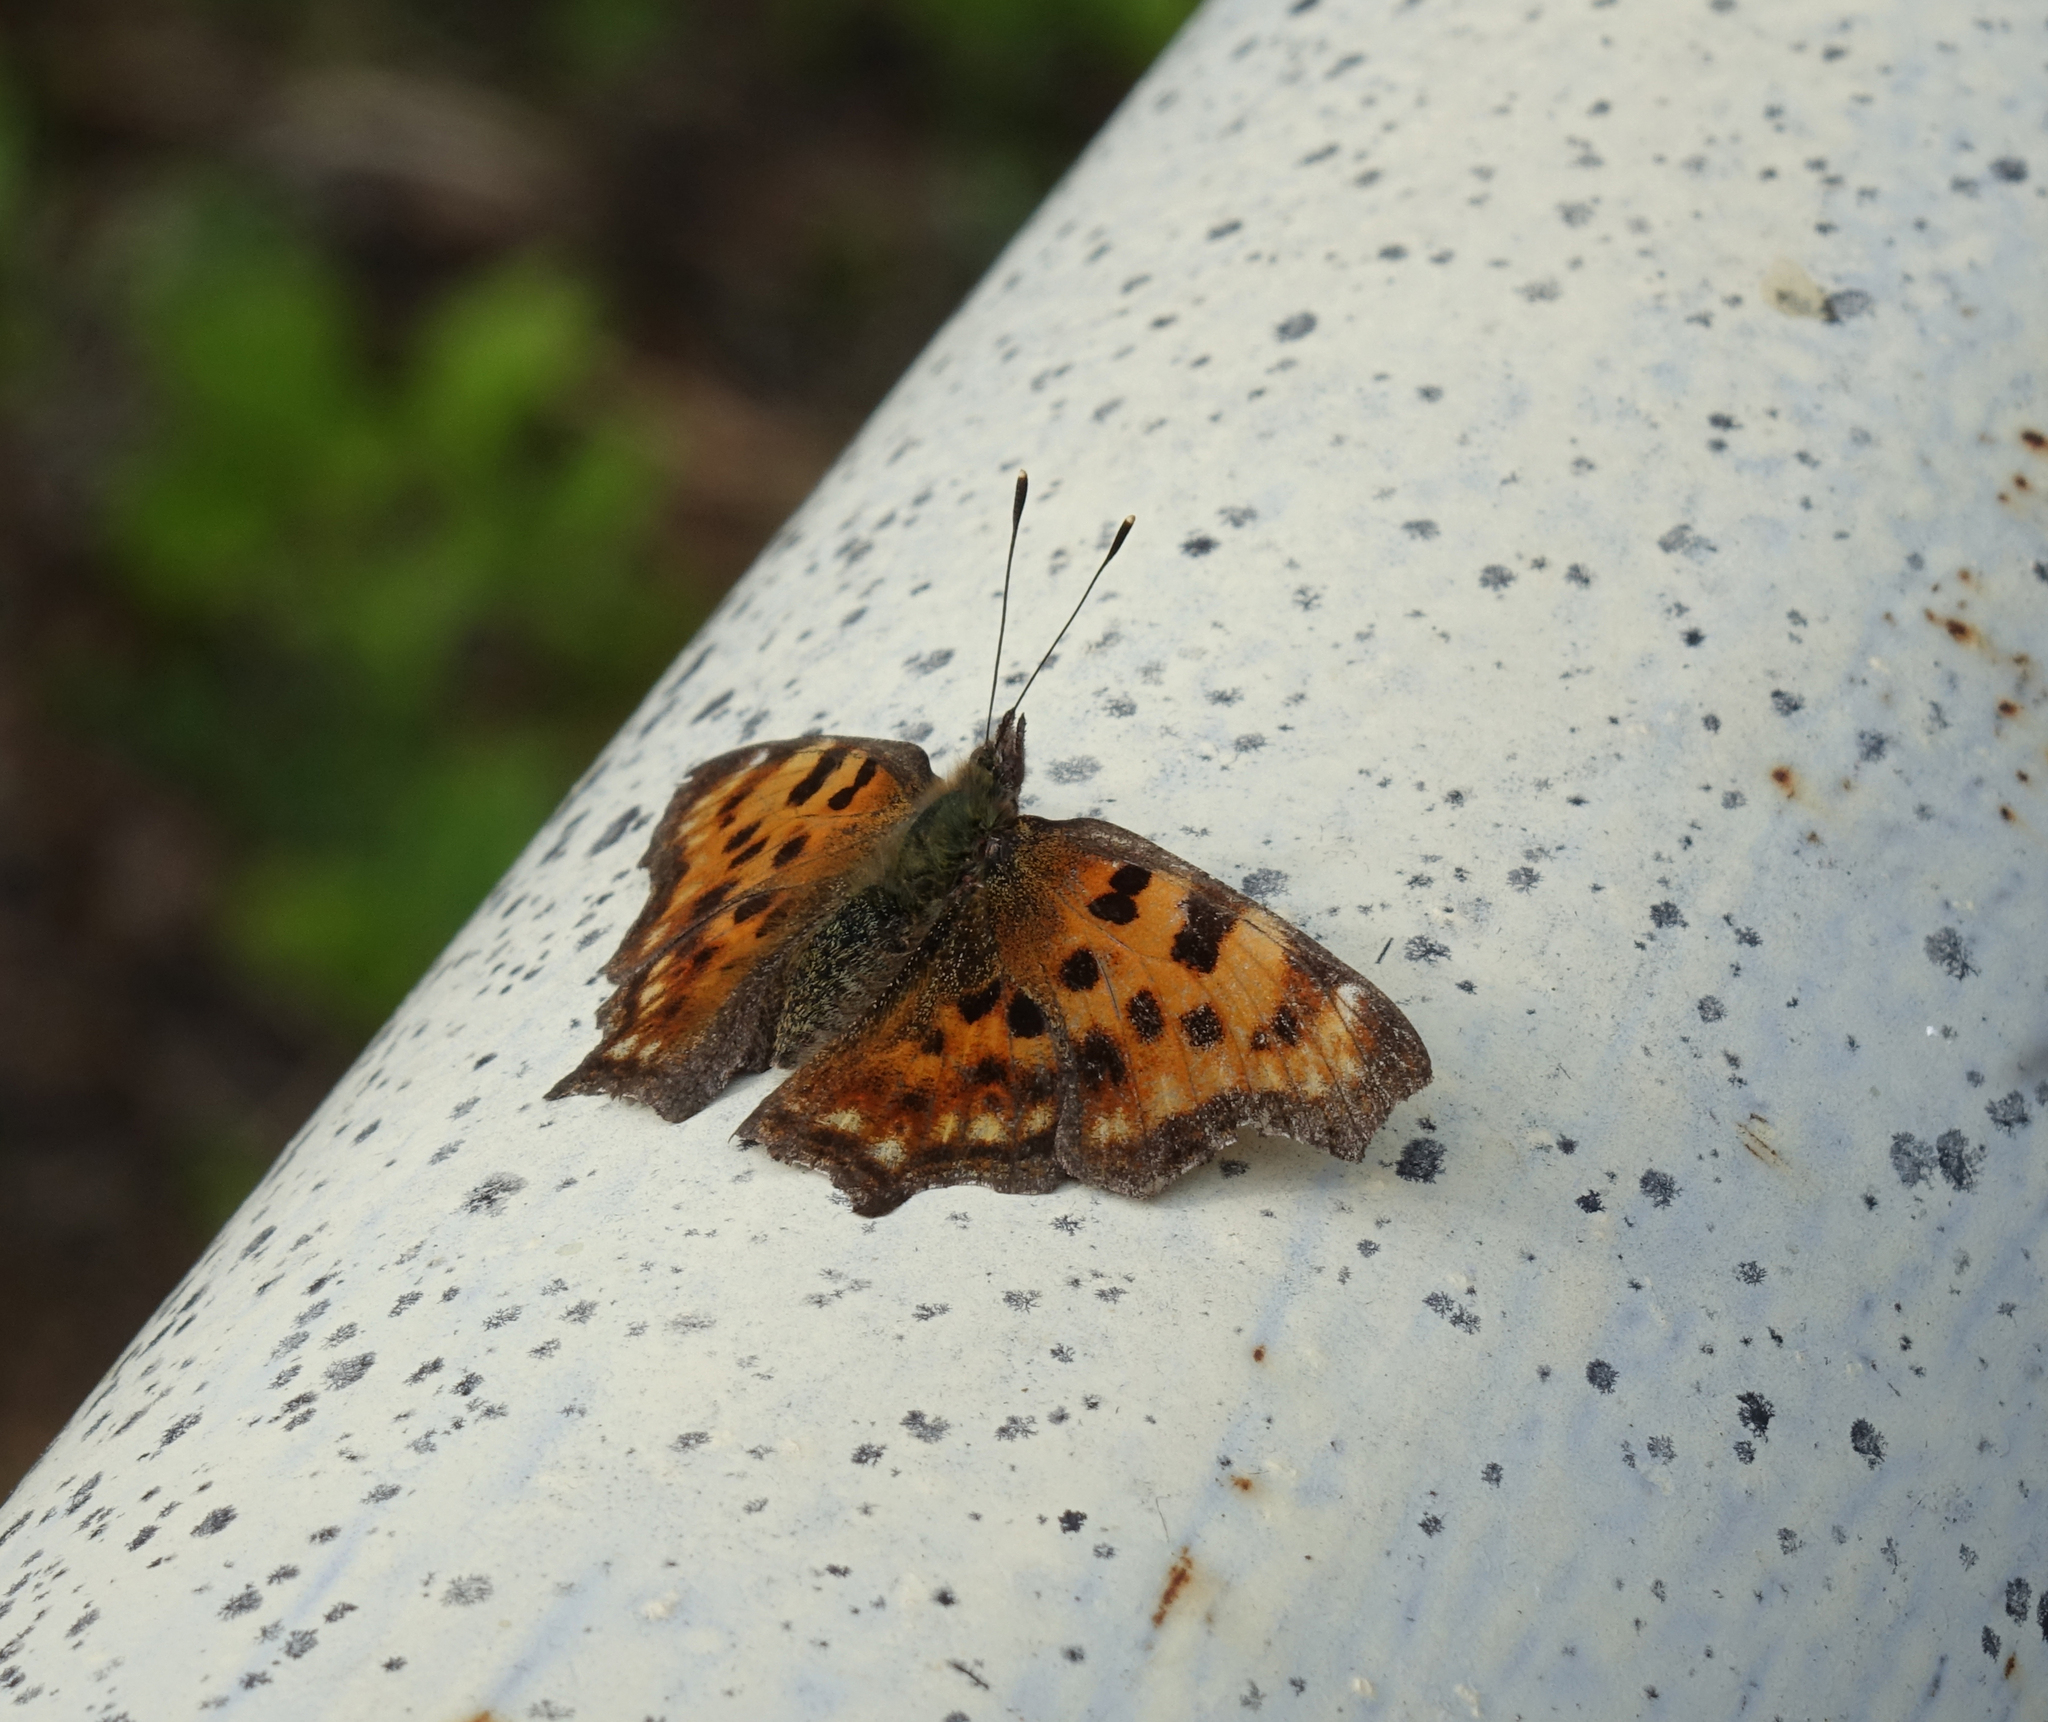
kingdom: Animalia
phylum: Arthropoda
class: Insecta
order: Lepidoptera
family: Nymphalidae
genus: Polygonia
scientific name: Polygonia c-album
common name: Comma
